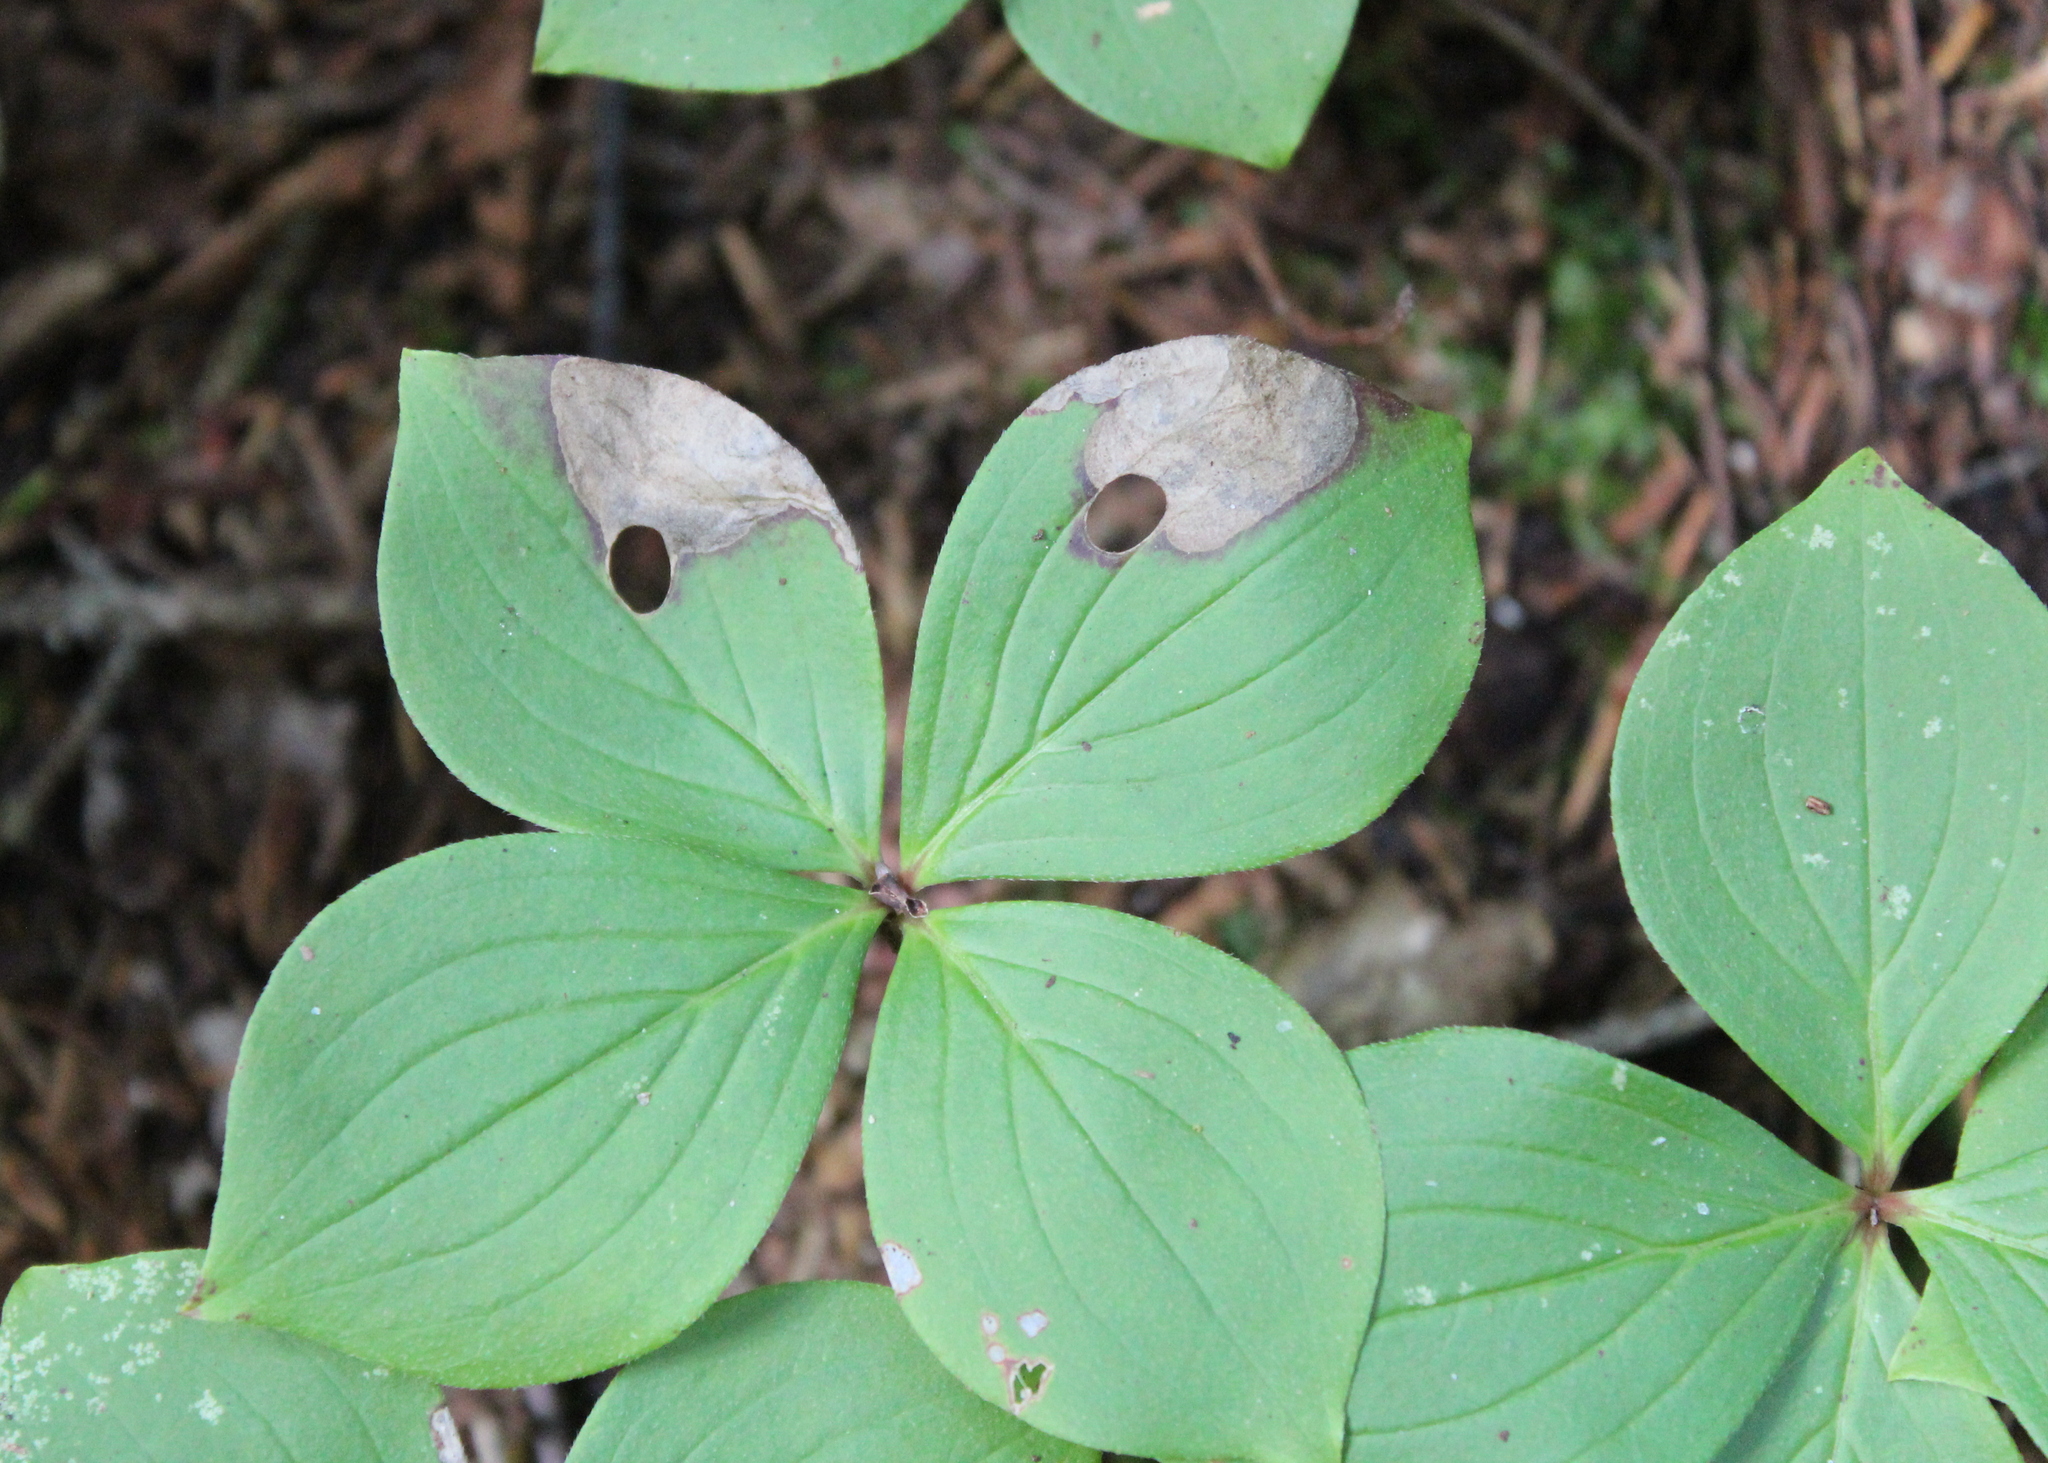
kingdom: Plantae
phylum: Tracheophyta
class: Magnoliopsida
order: Cornales
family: Cornaceae
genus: Cornus
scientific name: Cornus canadensis
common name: Creeping dogwood
